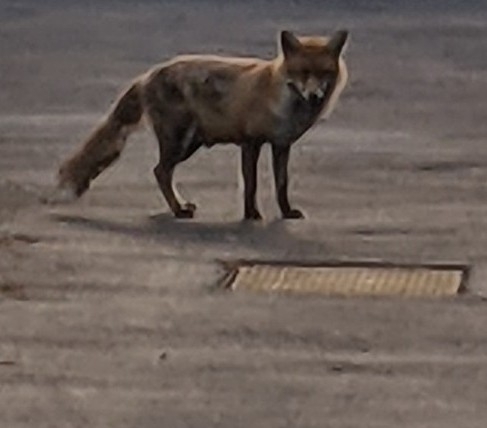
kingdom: Animalia
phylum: Chordata
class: Mammalia
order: Carnivora
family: Canidae
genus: Vulpes
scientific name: Vulpes vulpes
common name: Red fox
